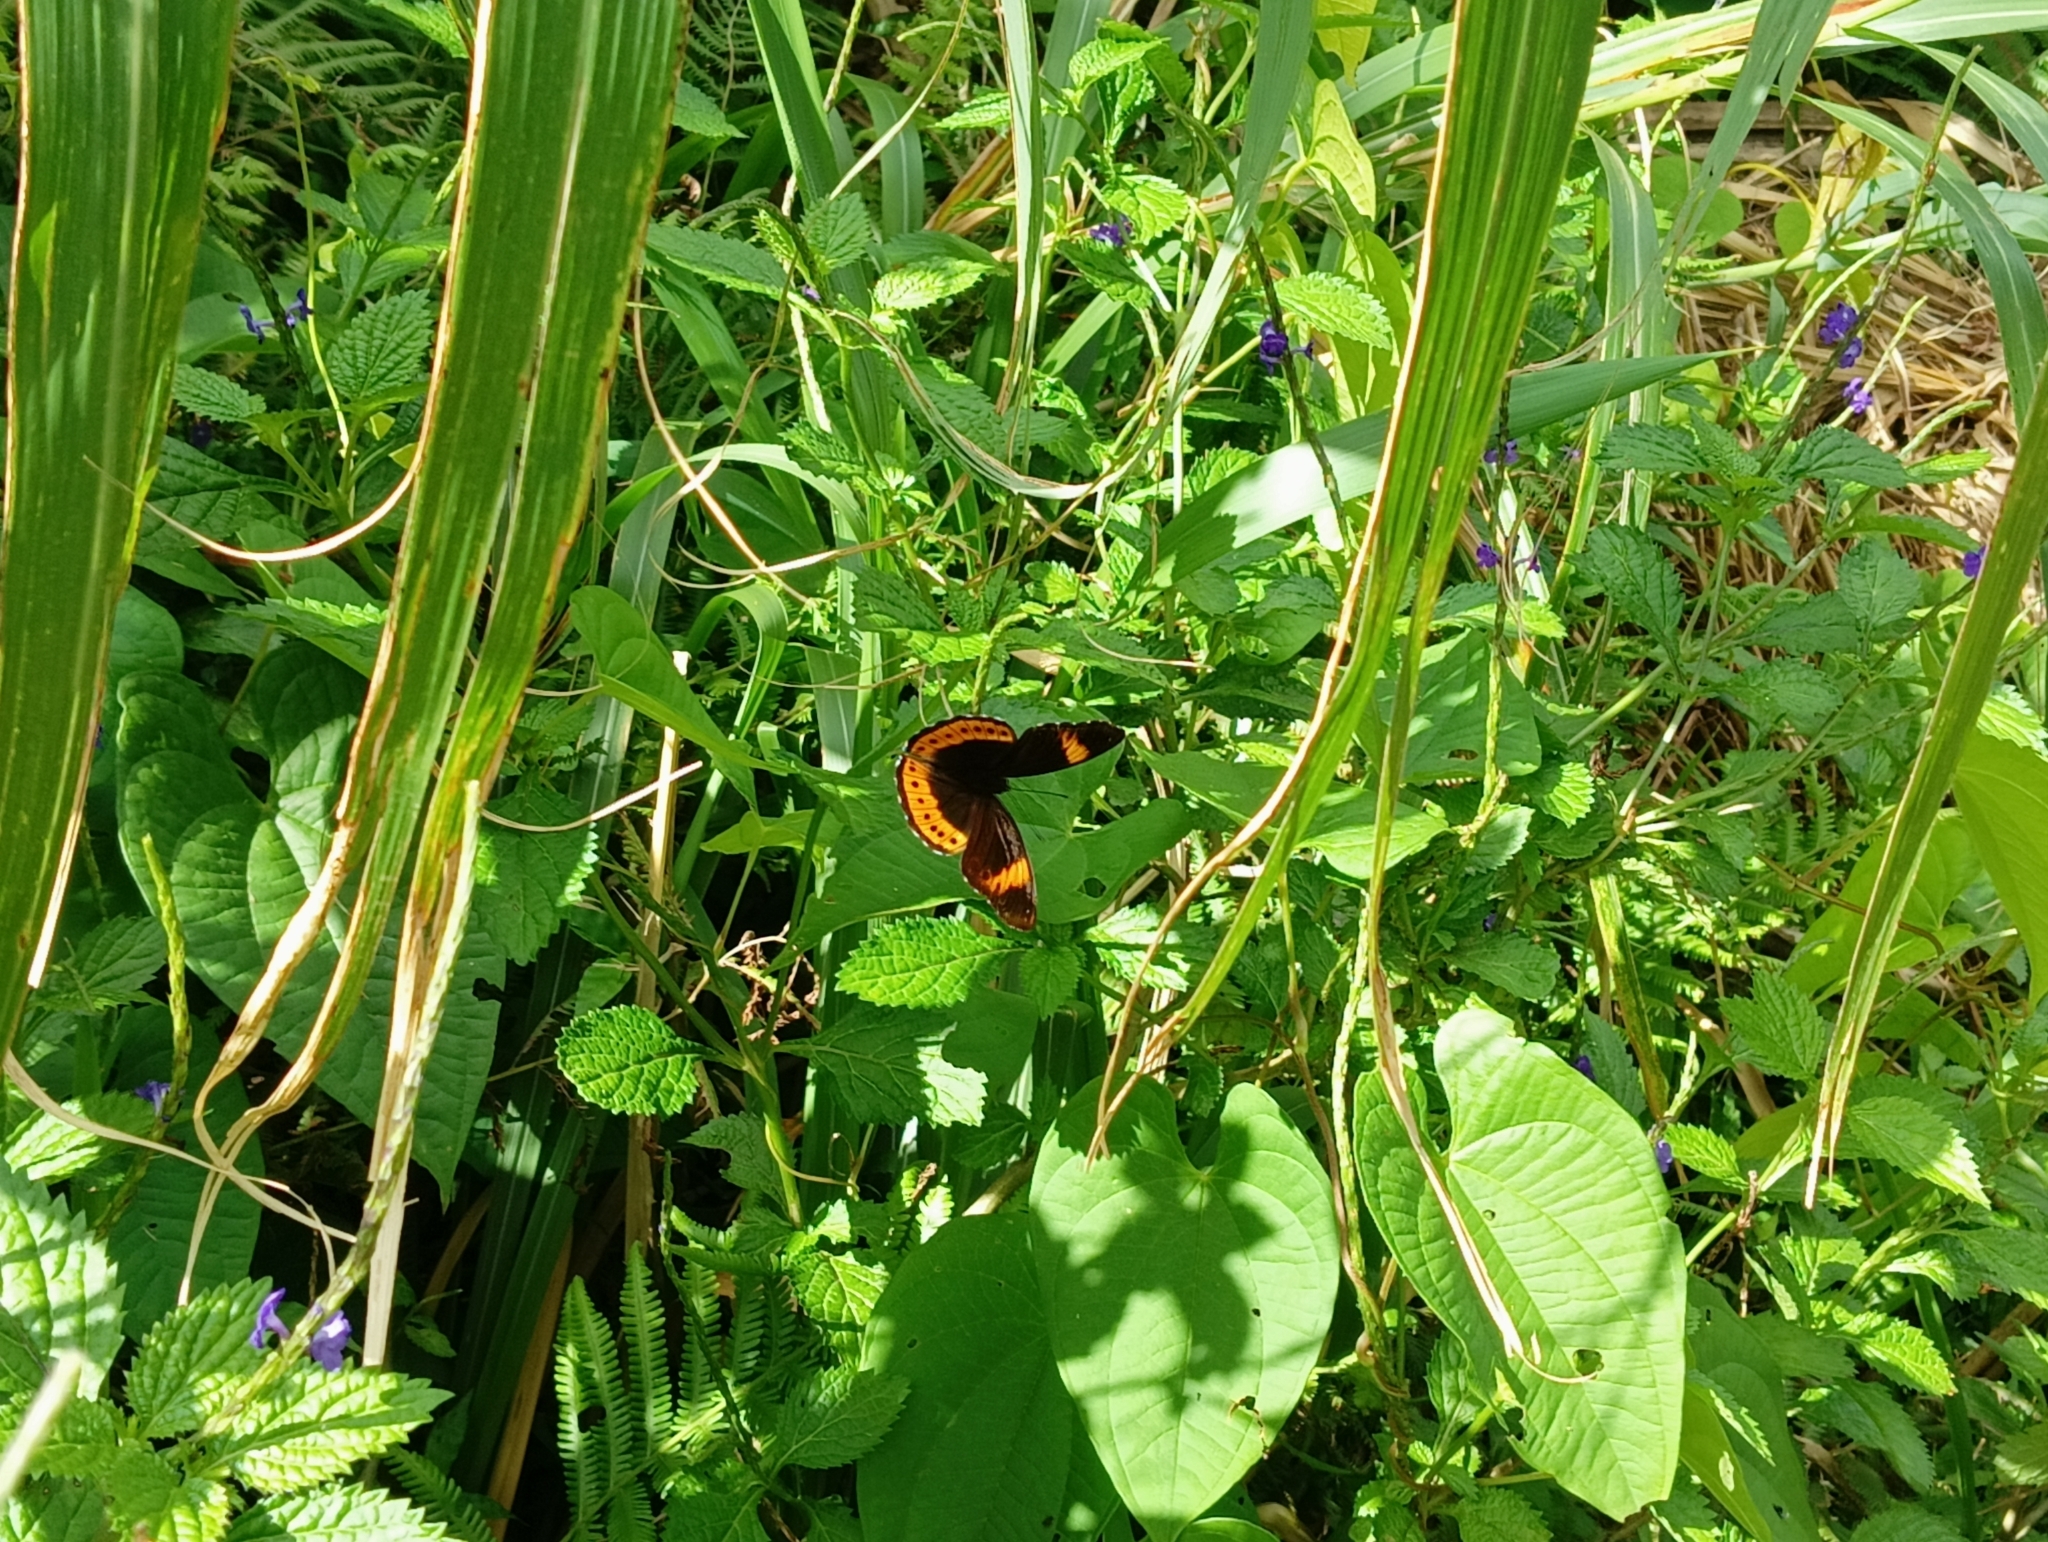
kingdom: Animalia
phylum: Arthropoda
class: Insecta
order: Lepidoptera
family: Nymphalidae
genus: Hypolimnas
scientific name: Hypolimnas octocula
